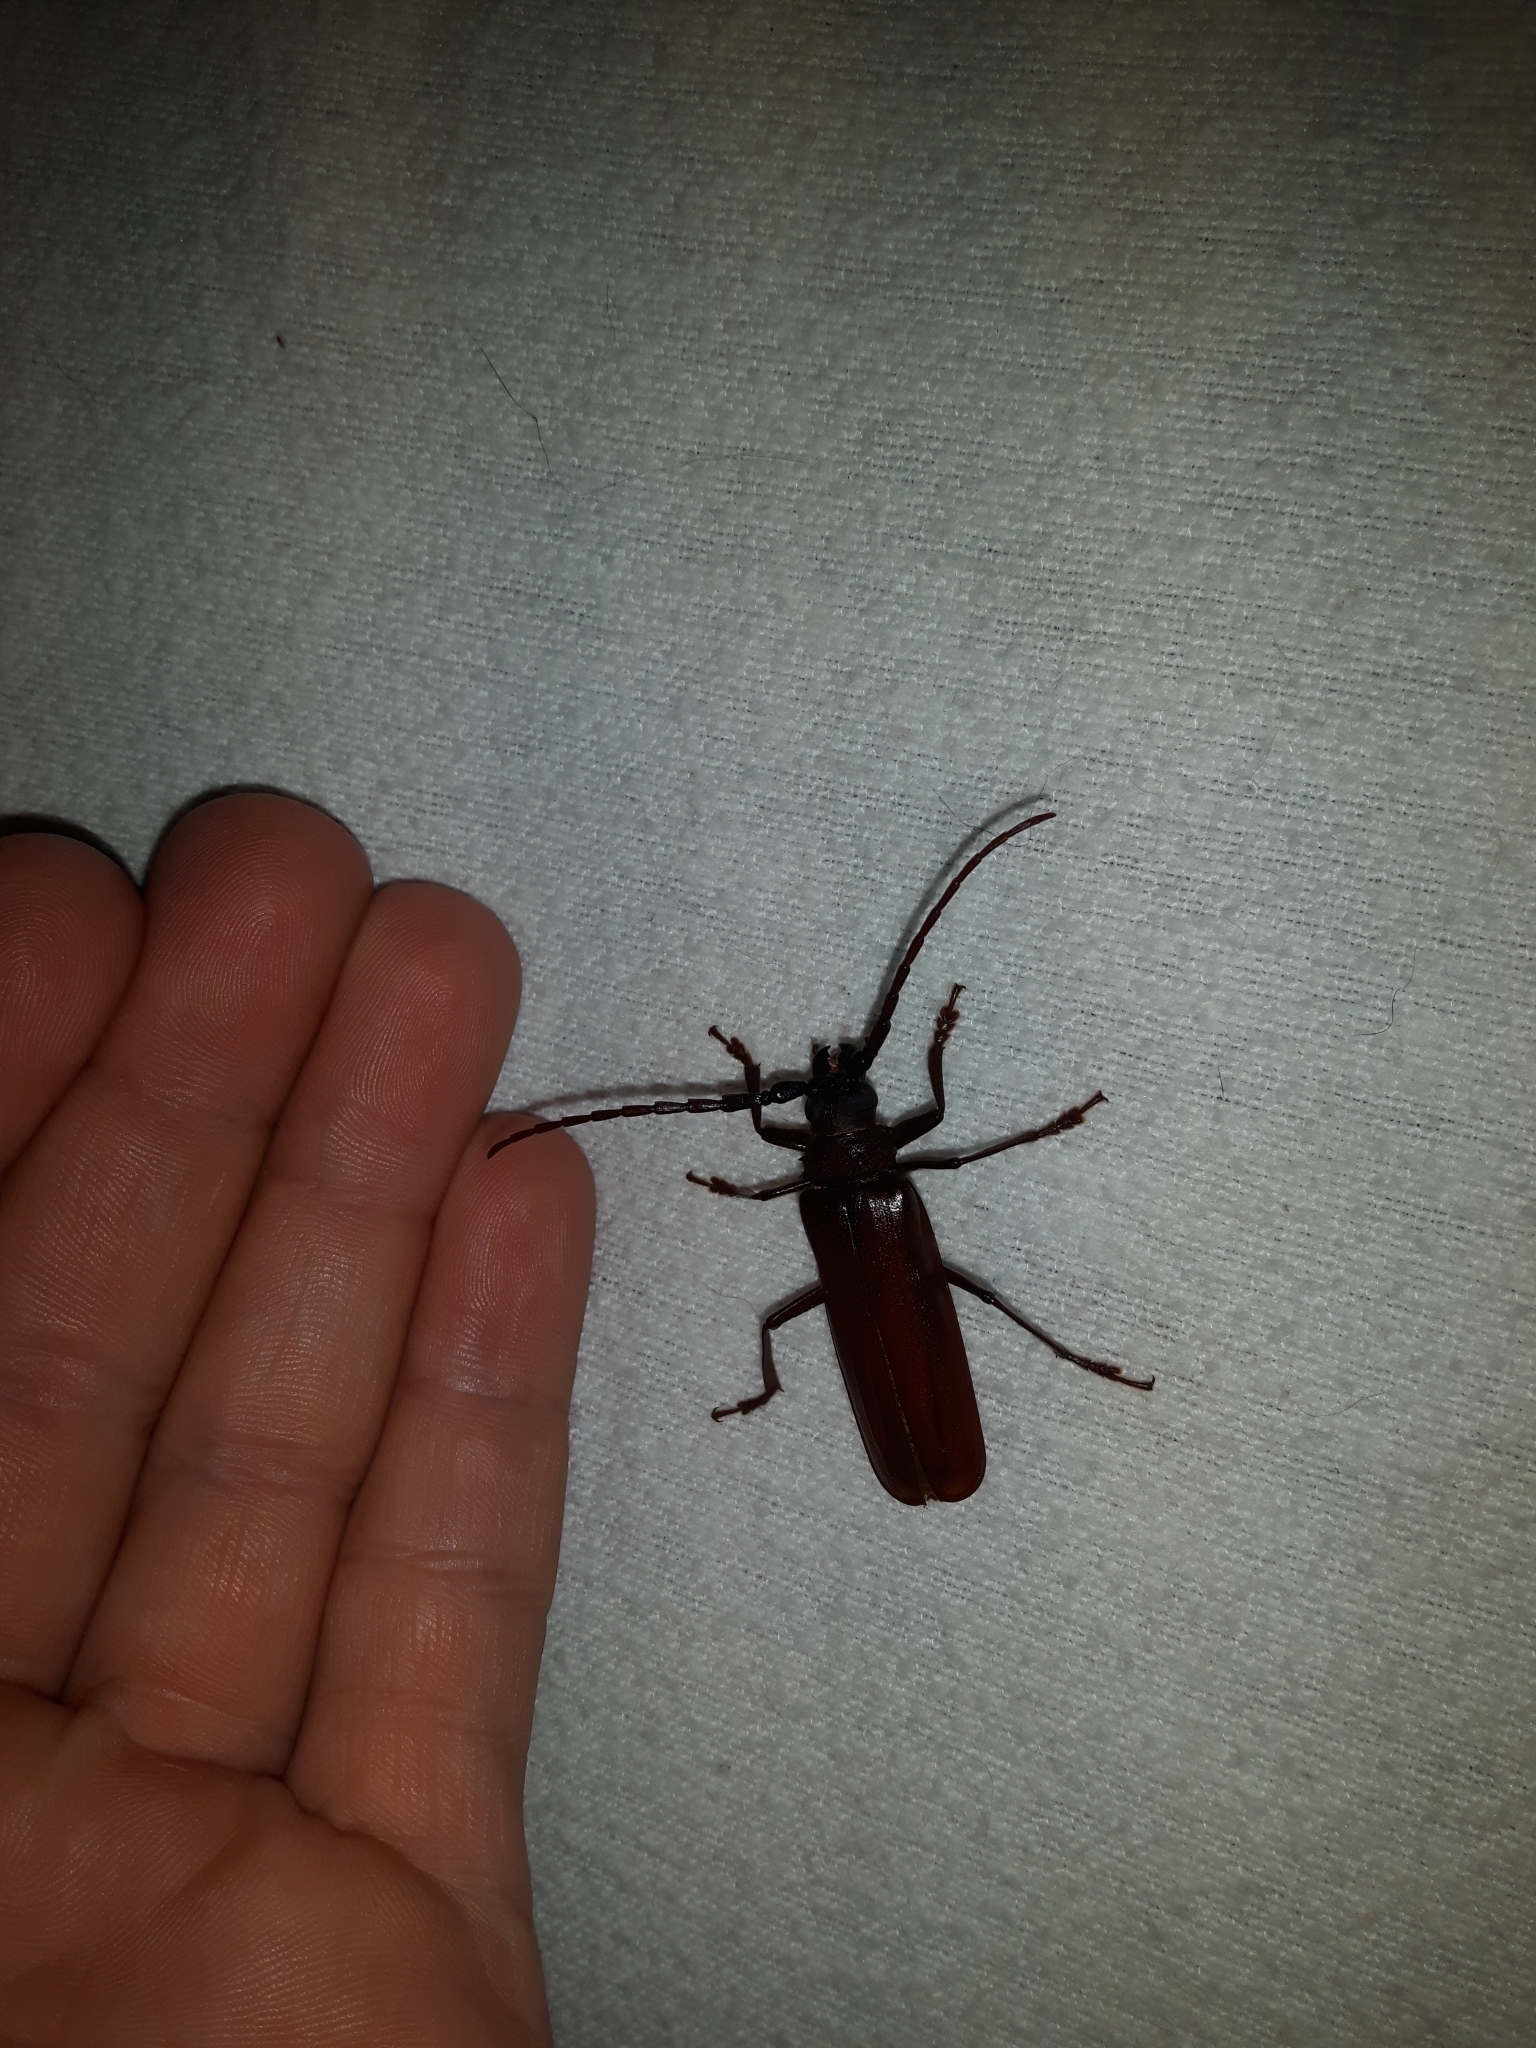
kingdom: Animalia
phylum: Arthropoda
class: Insecta
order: Coleoptera
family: Cerambycidae
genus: Orthosoma
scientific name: Orthosoma brunneum
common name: Brown prionid beetle
